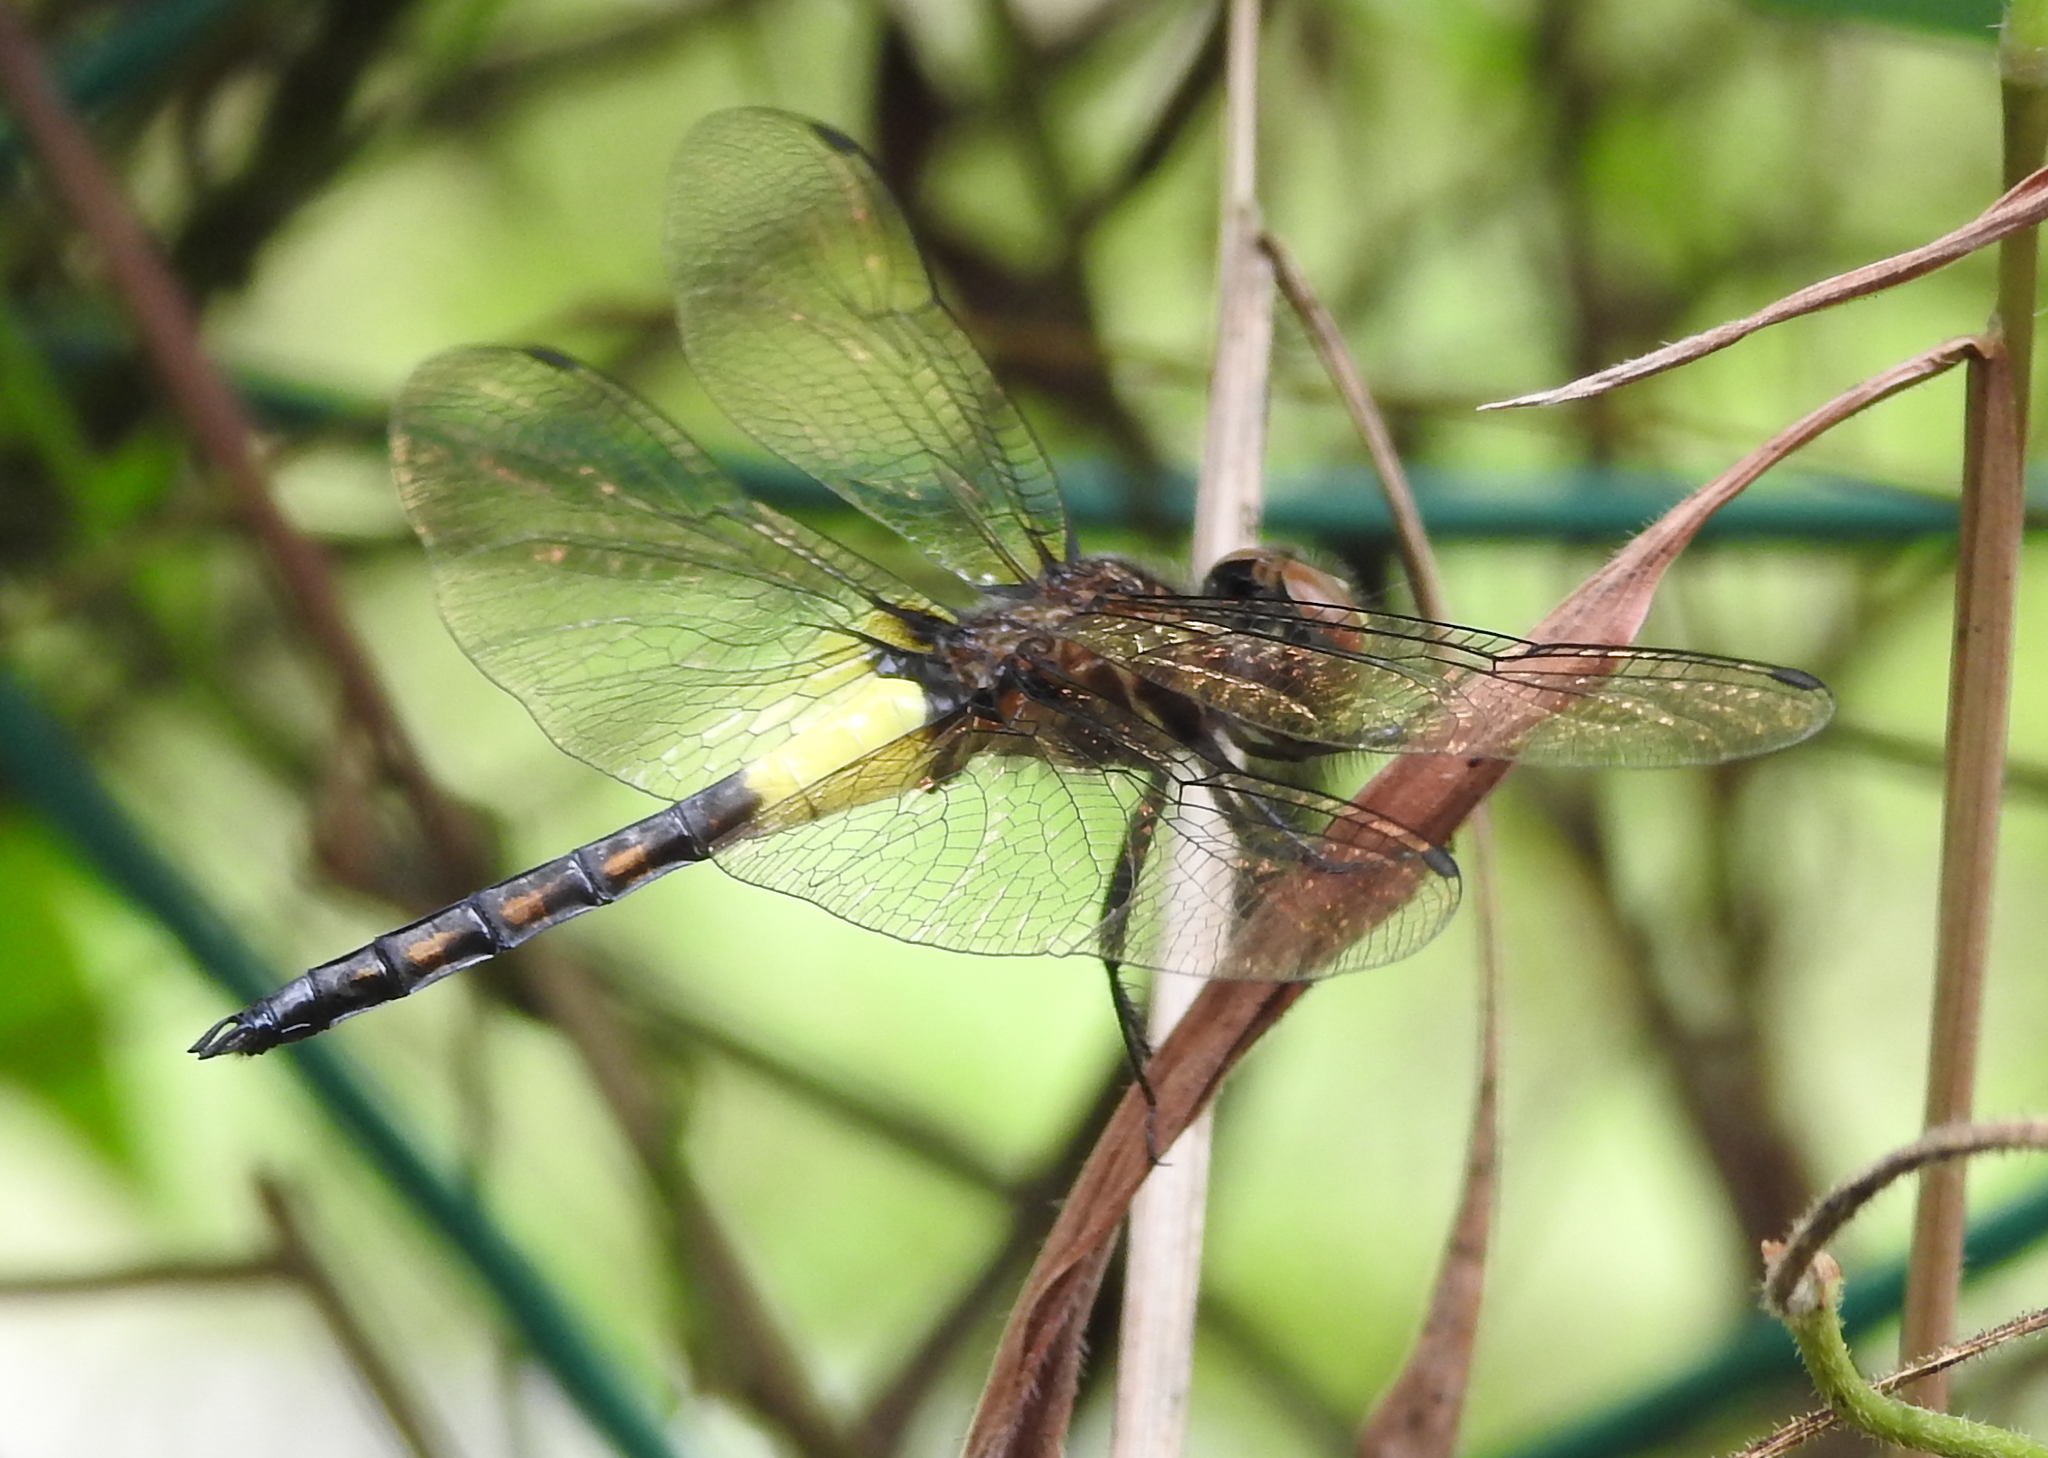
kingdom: Animalia
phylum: Arthropoda
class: Insecta
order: Odonata
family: Libellulidae
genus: Pseudothemis
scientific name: Pseudothemis jorina
